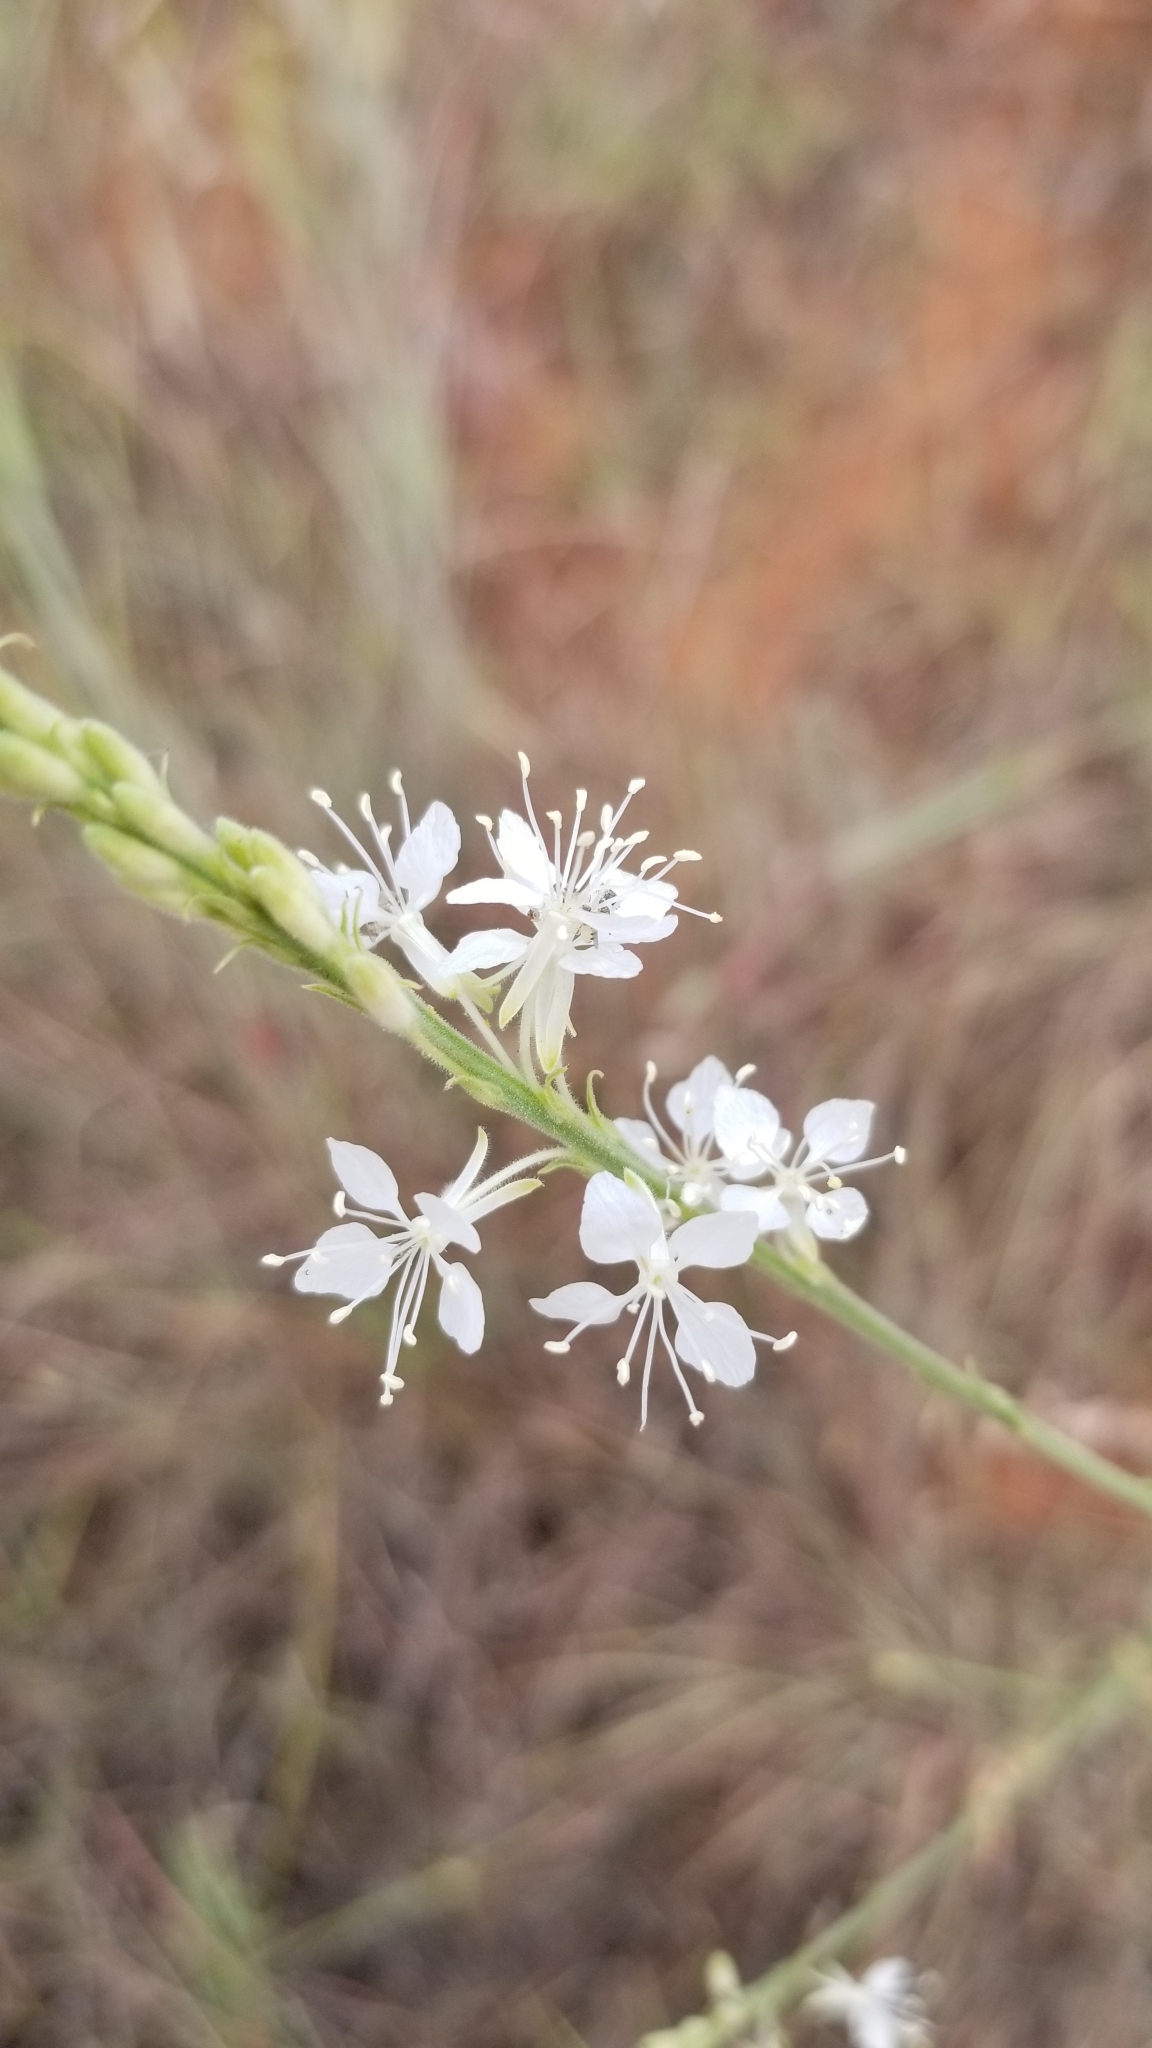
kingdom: Plantae
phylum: Tracheophyta
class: Magnoliopsida
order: Myrtales
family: Onagraceae
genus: Oenothera
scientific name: Oenothera glaucifolia
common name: False gaura
